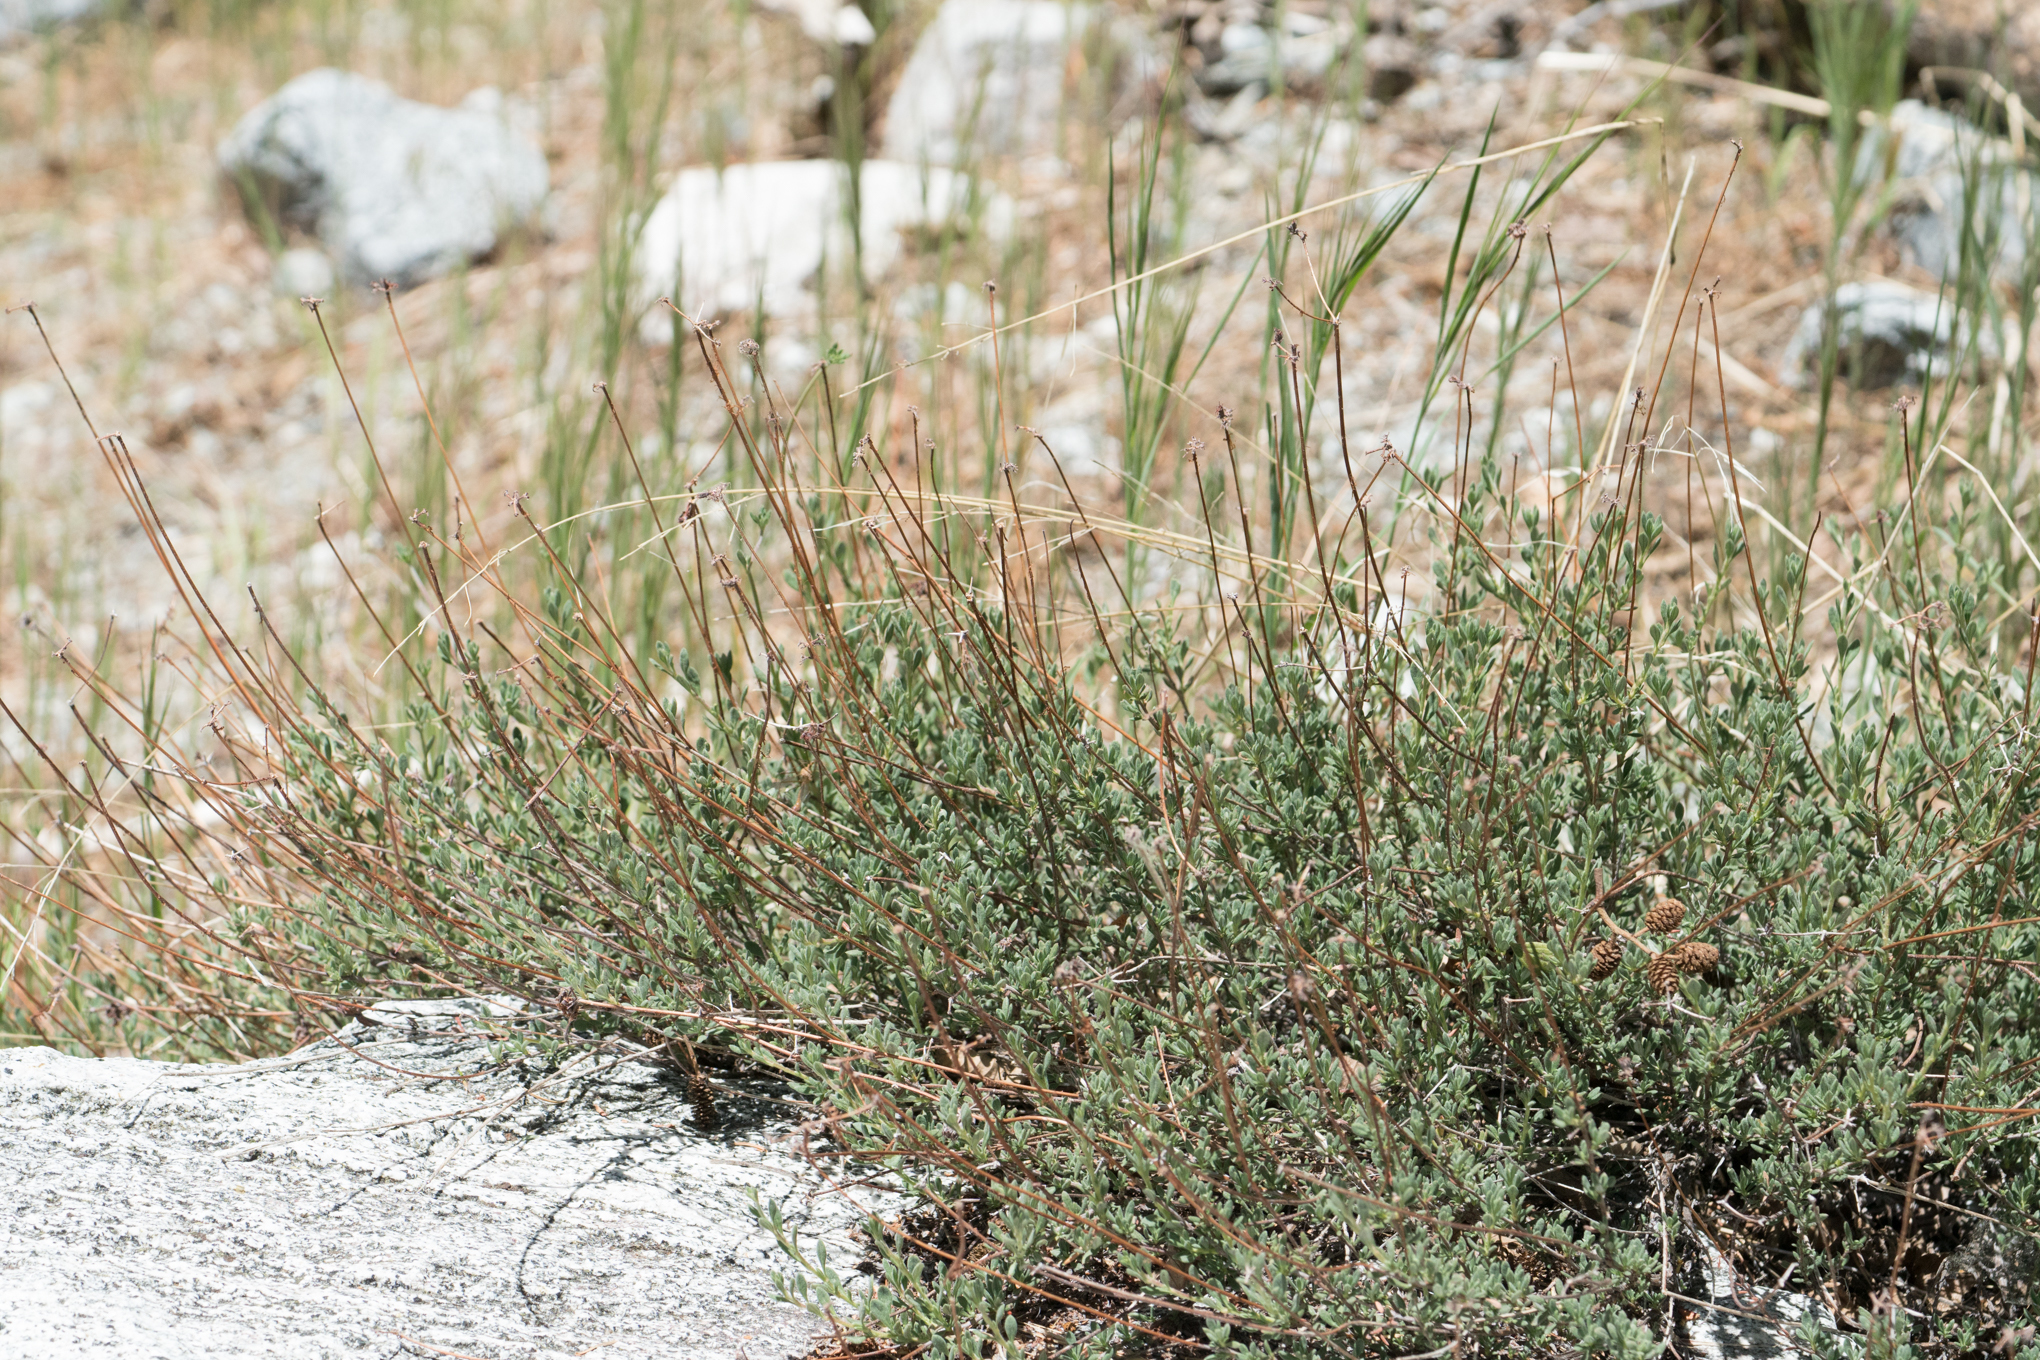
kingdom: Plantae
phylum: Tracheophyta
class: Magnoliopsida
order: Caryophyllales
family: Polygonaceae
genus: Eriogonum
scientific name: Eriogonum fasciculatum
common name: California wild buckwheat
